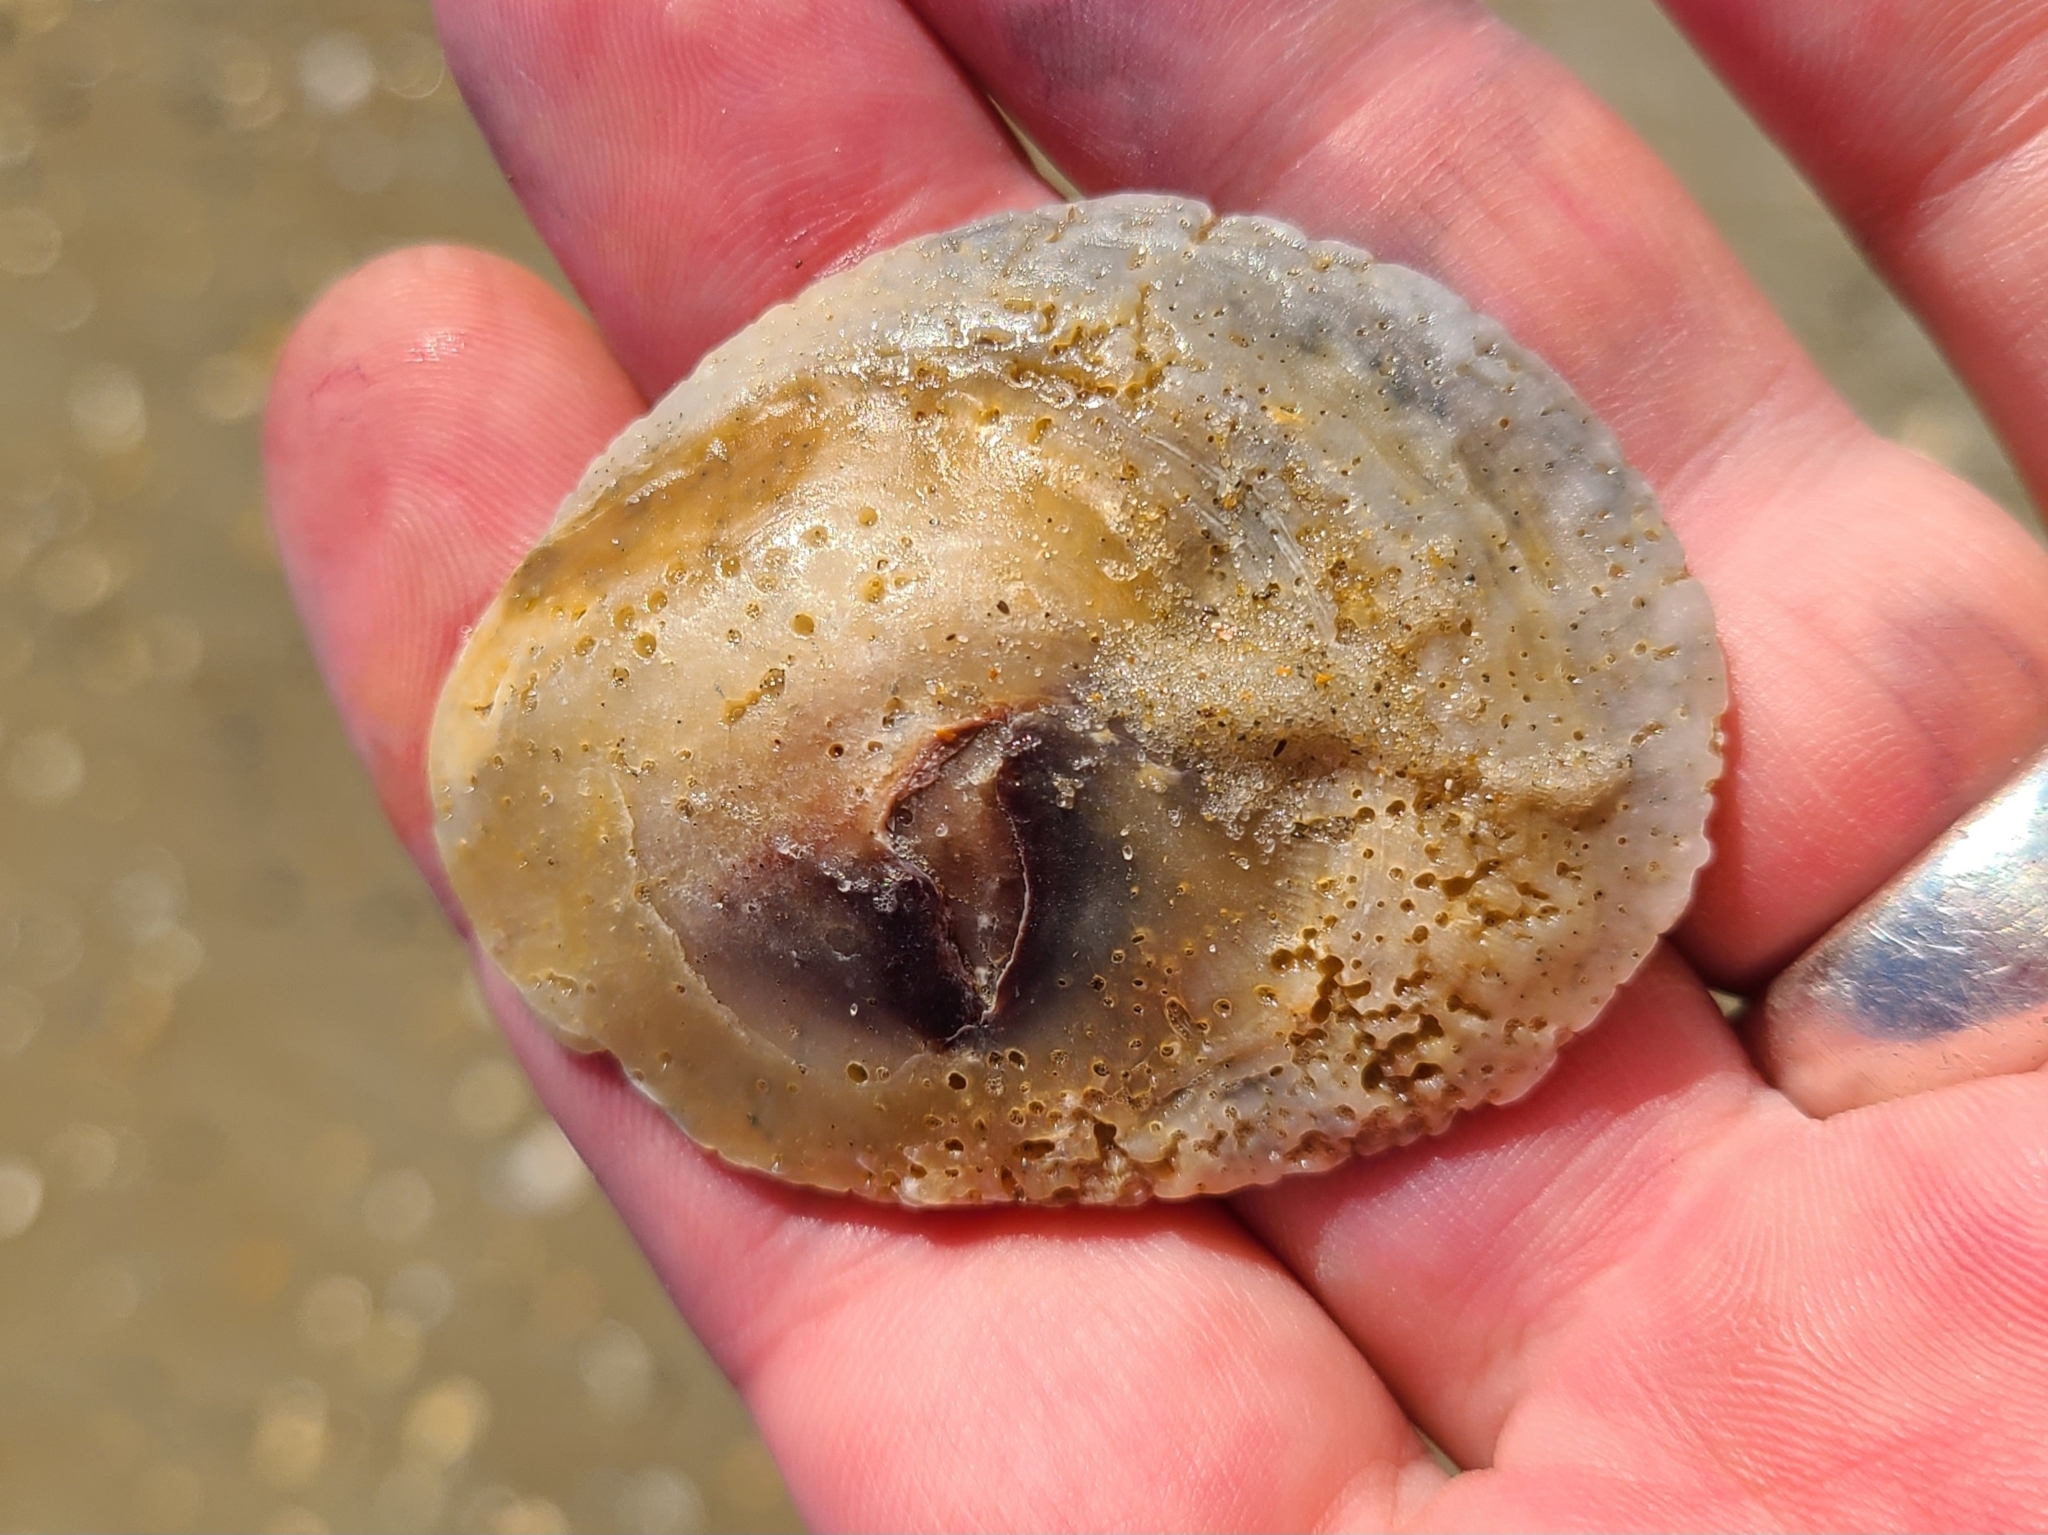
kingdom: Animalia
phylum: Mollusca
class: Bivalvia
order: Ostreida
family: Ostreidae
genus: Crassostrea
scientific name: Crassostrea virginica
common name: American oyster
